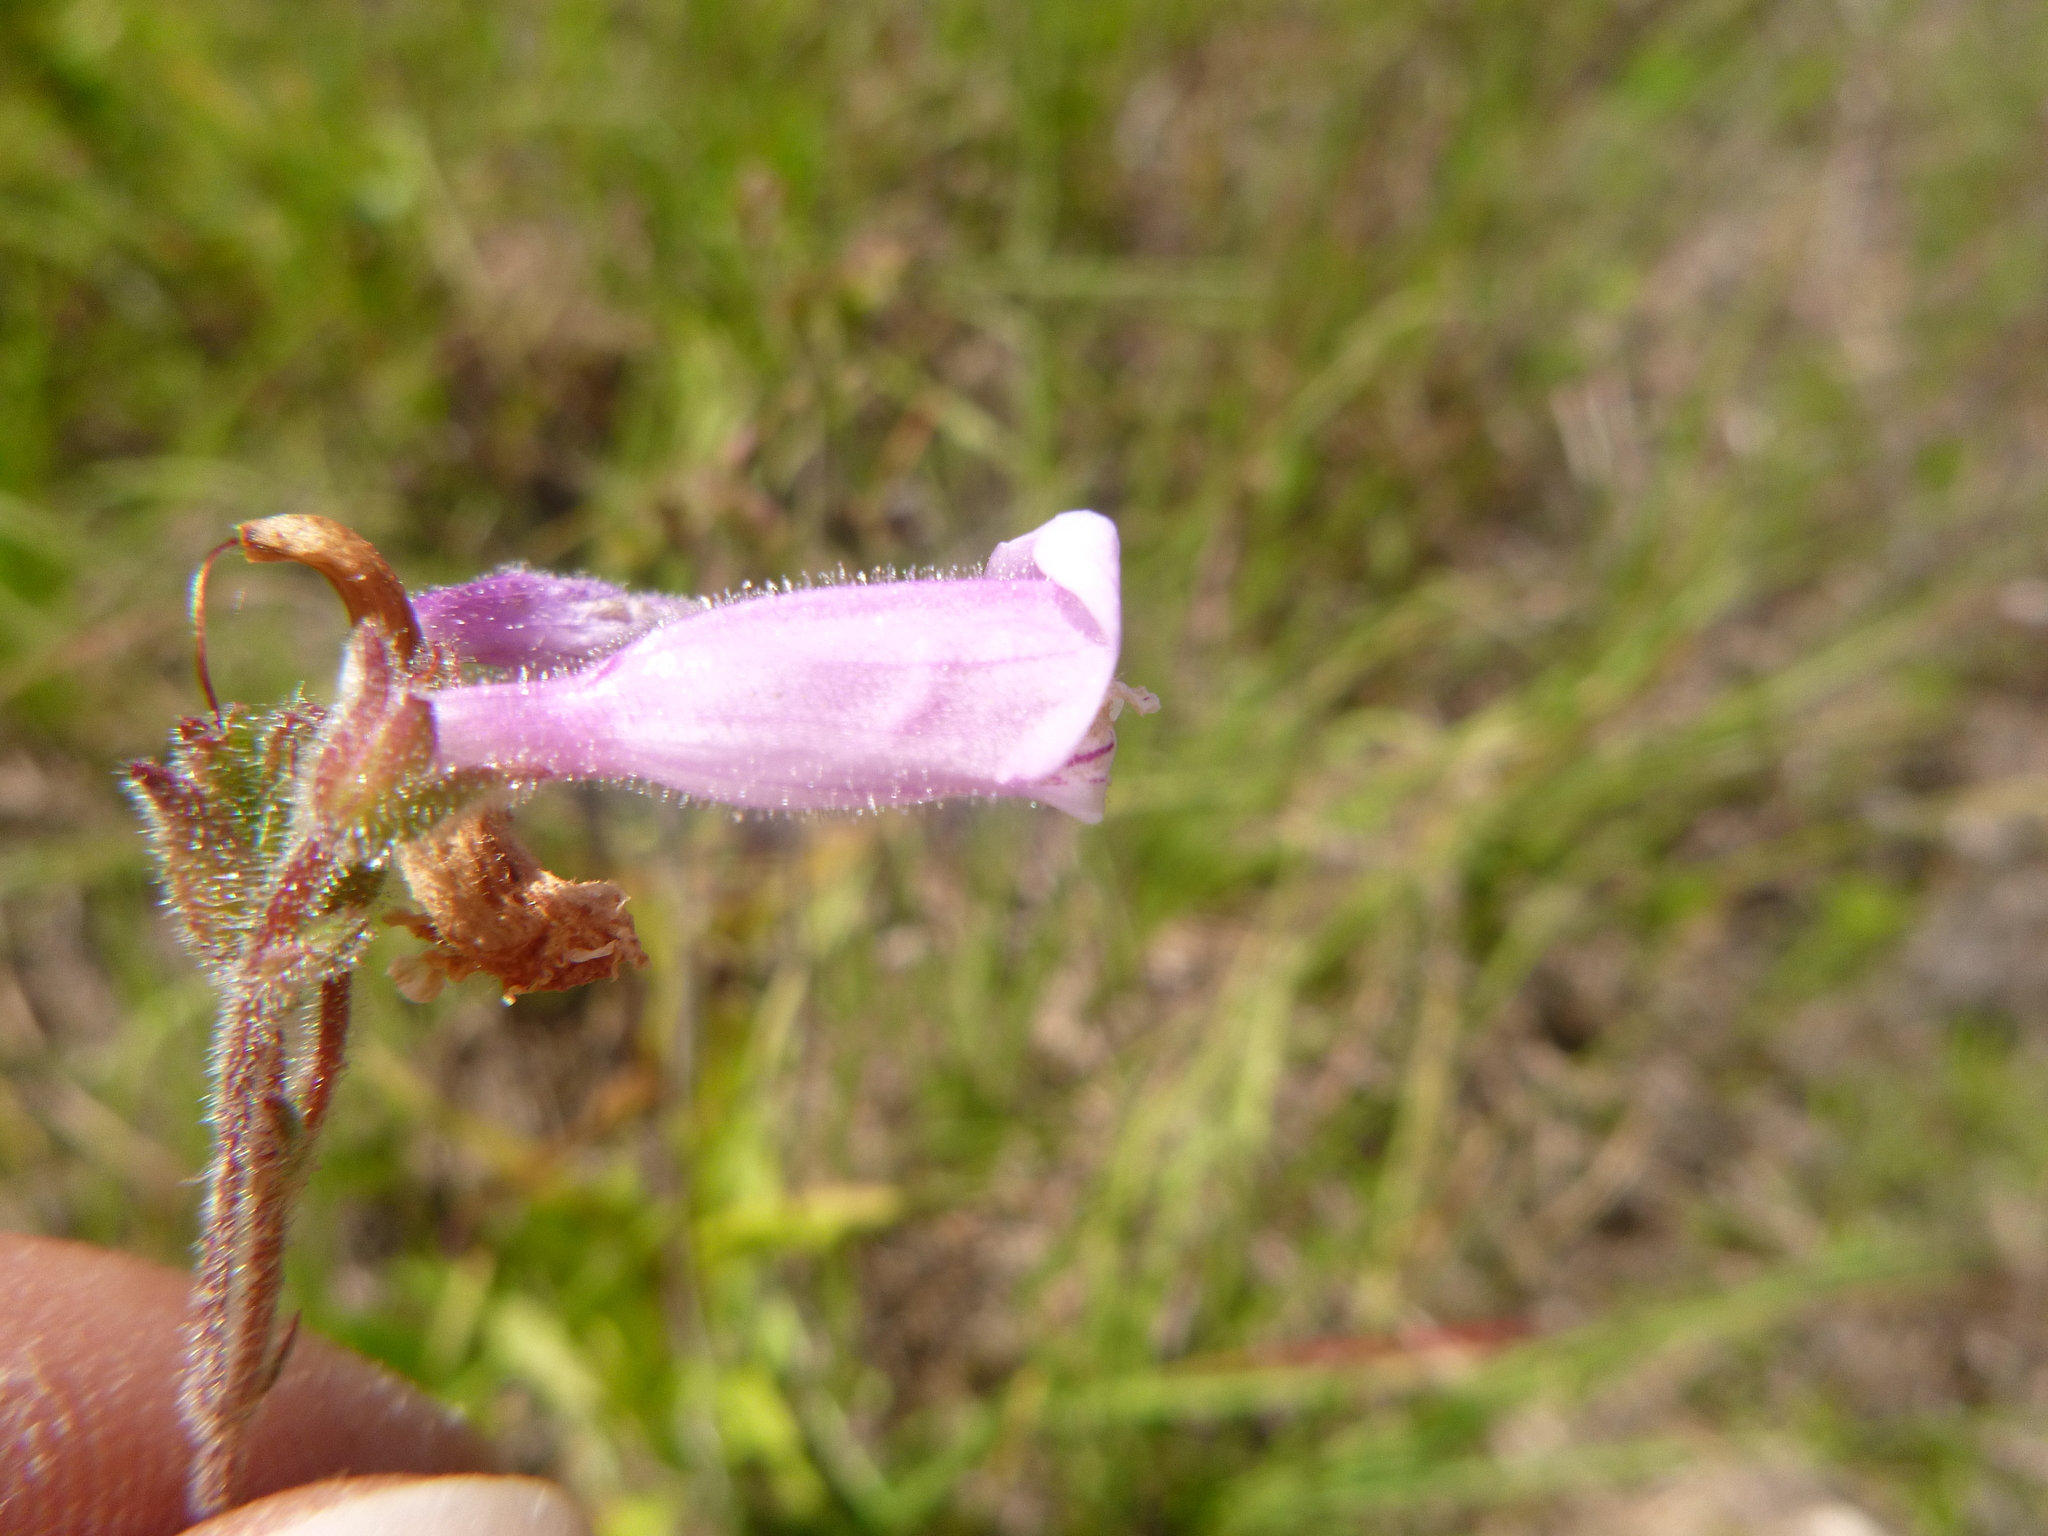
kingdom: Plantae
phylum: Tracheophyta
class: Magnoliopsida
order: Lamiales
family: Plantaginaceae
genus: Penstemon
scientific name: Penstemon australis
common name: Southeastern beardtongue
